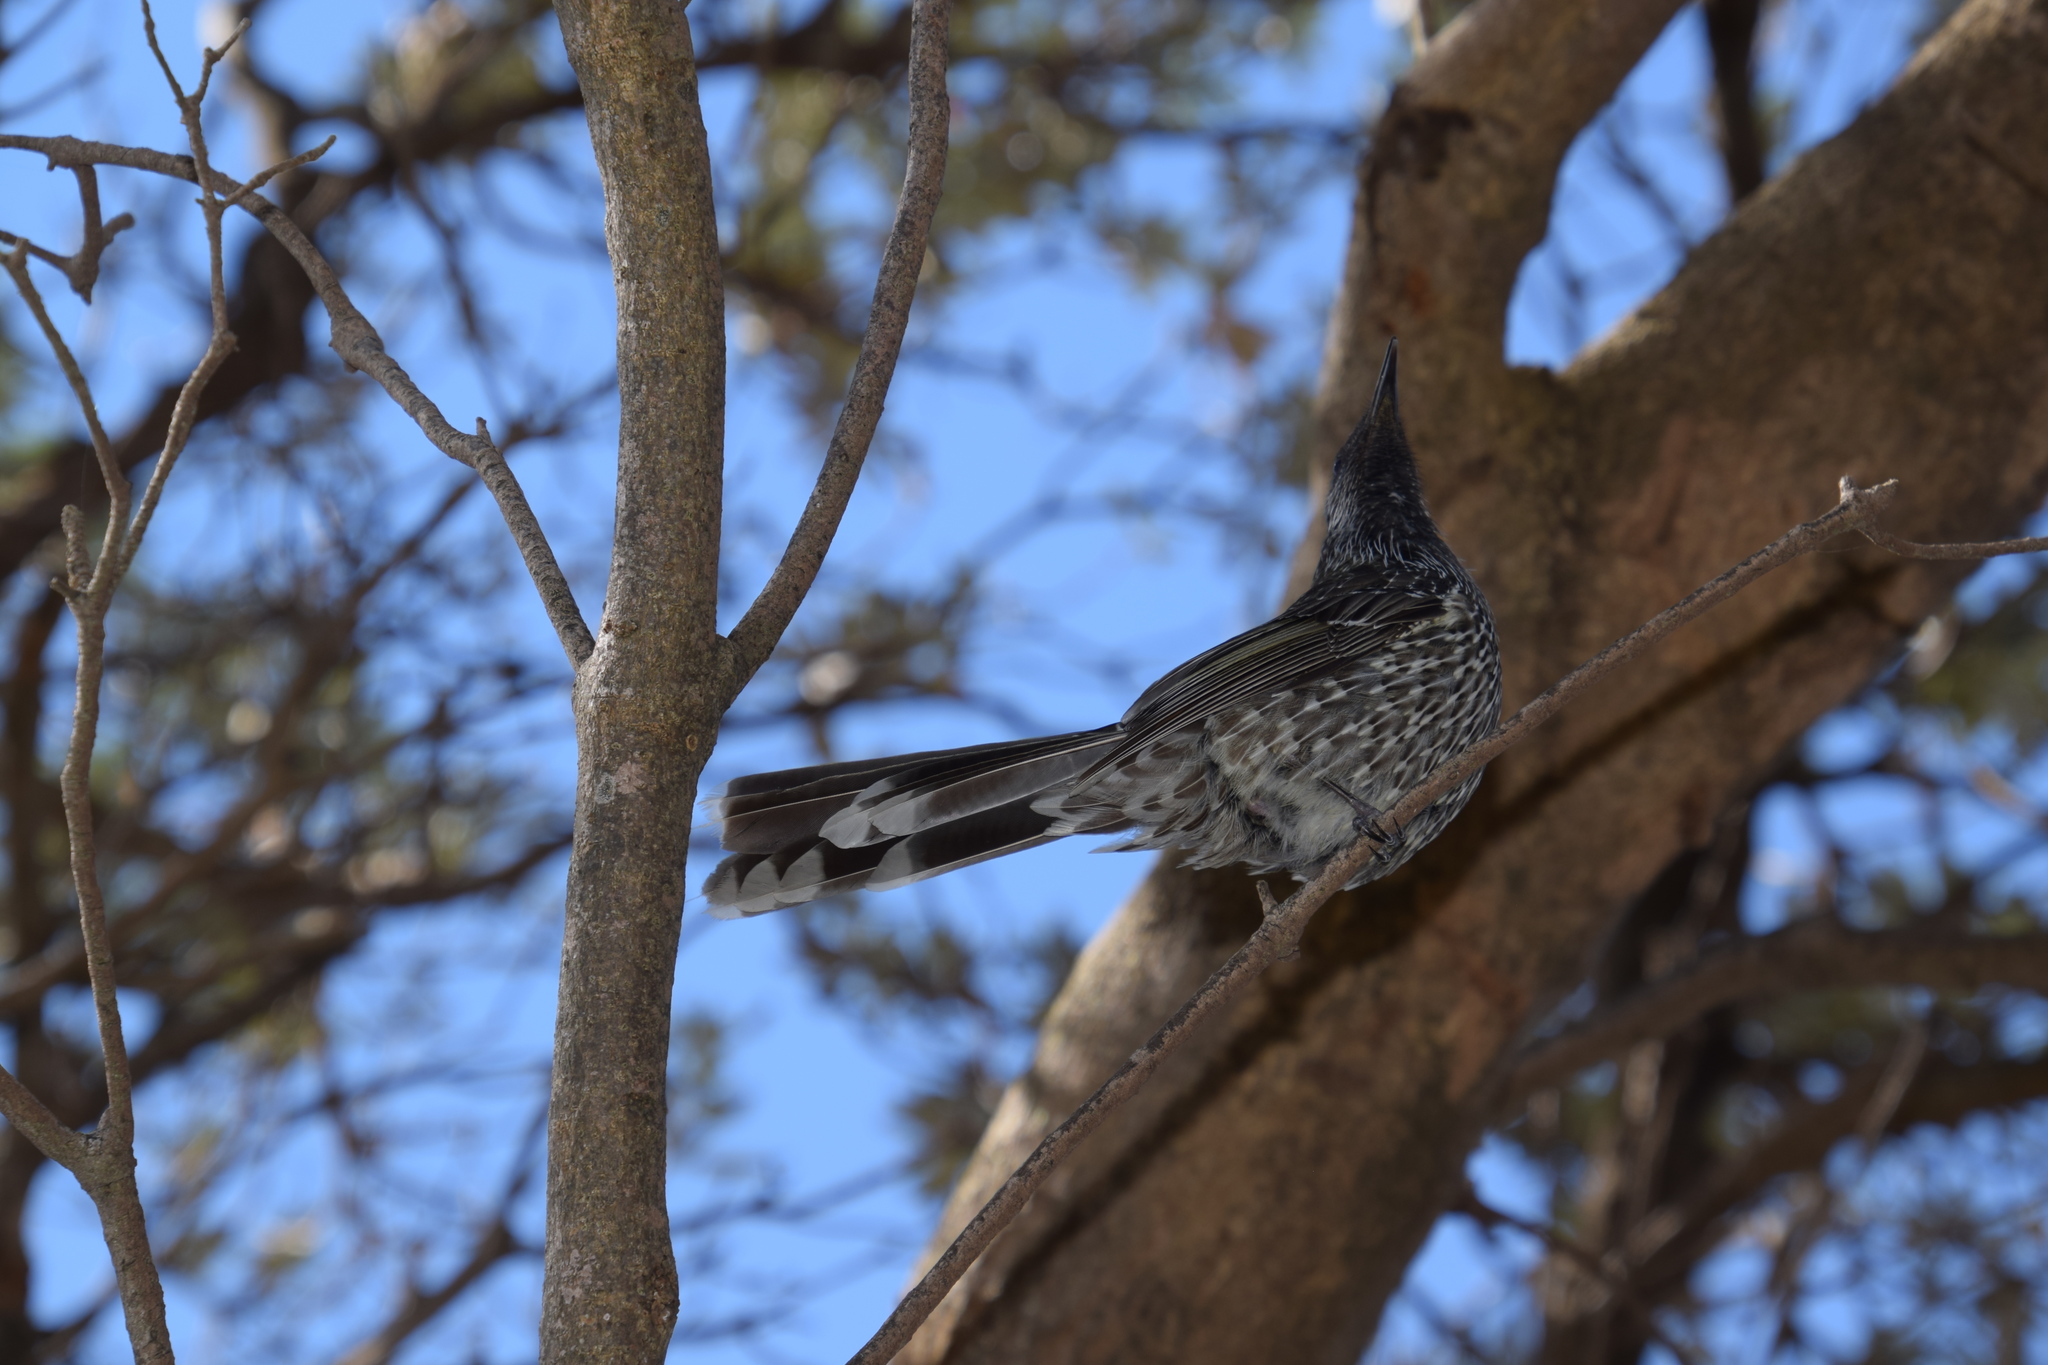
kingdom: Animalia
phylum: Chordata
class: Aves
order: Passeriformes
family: Meliphagidae
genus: Anthochaera
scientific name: Anthochaera chrysoptera
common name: Little wattlebird
